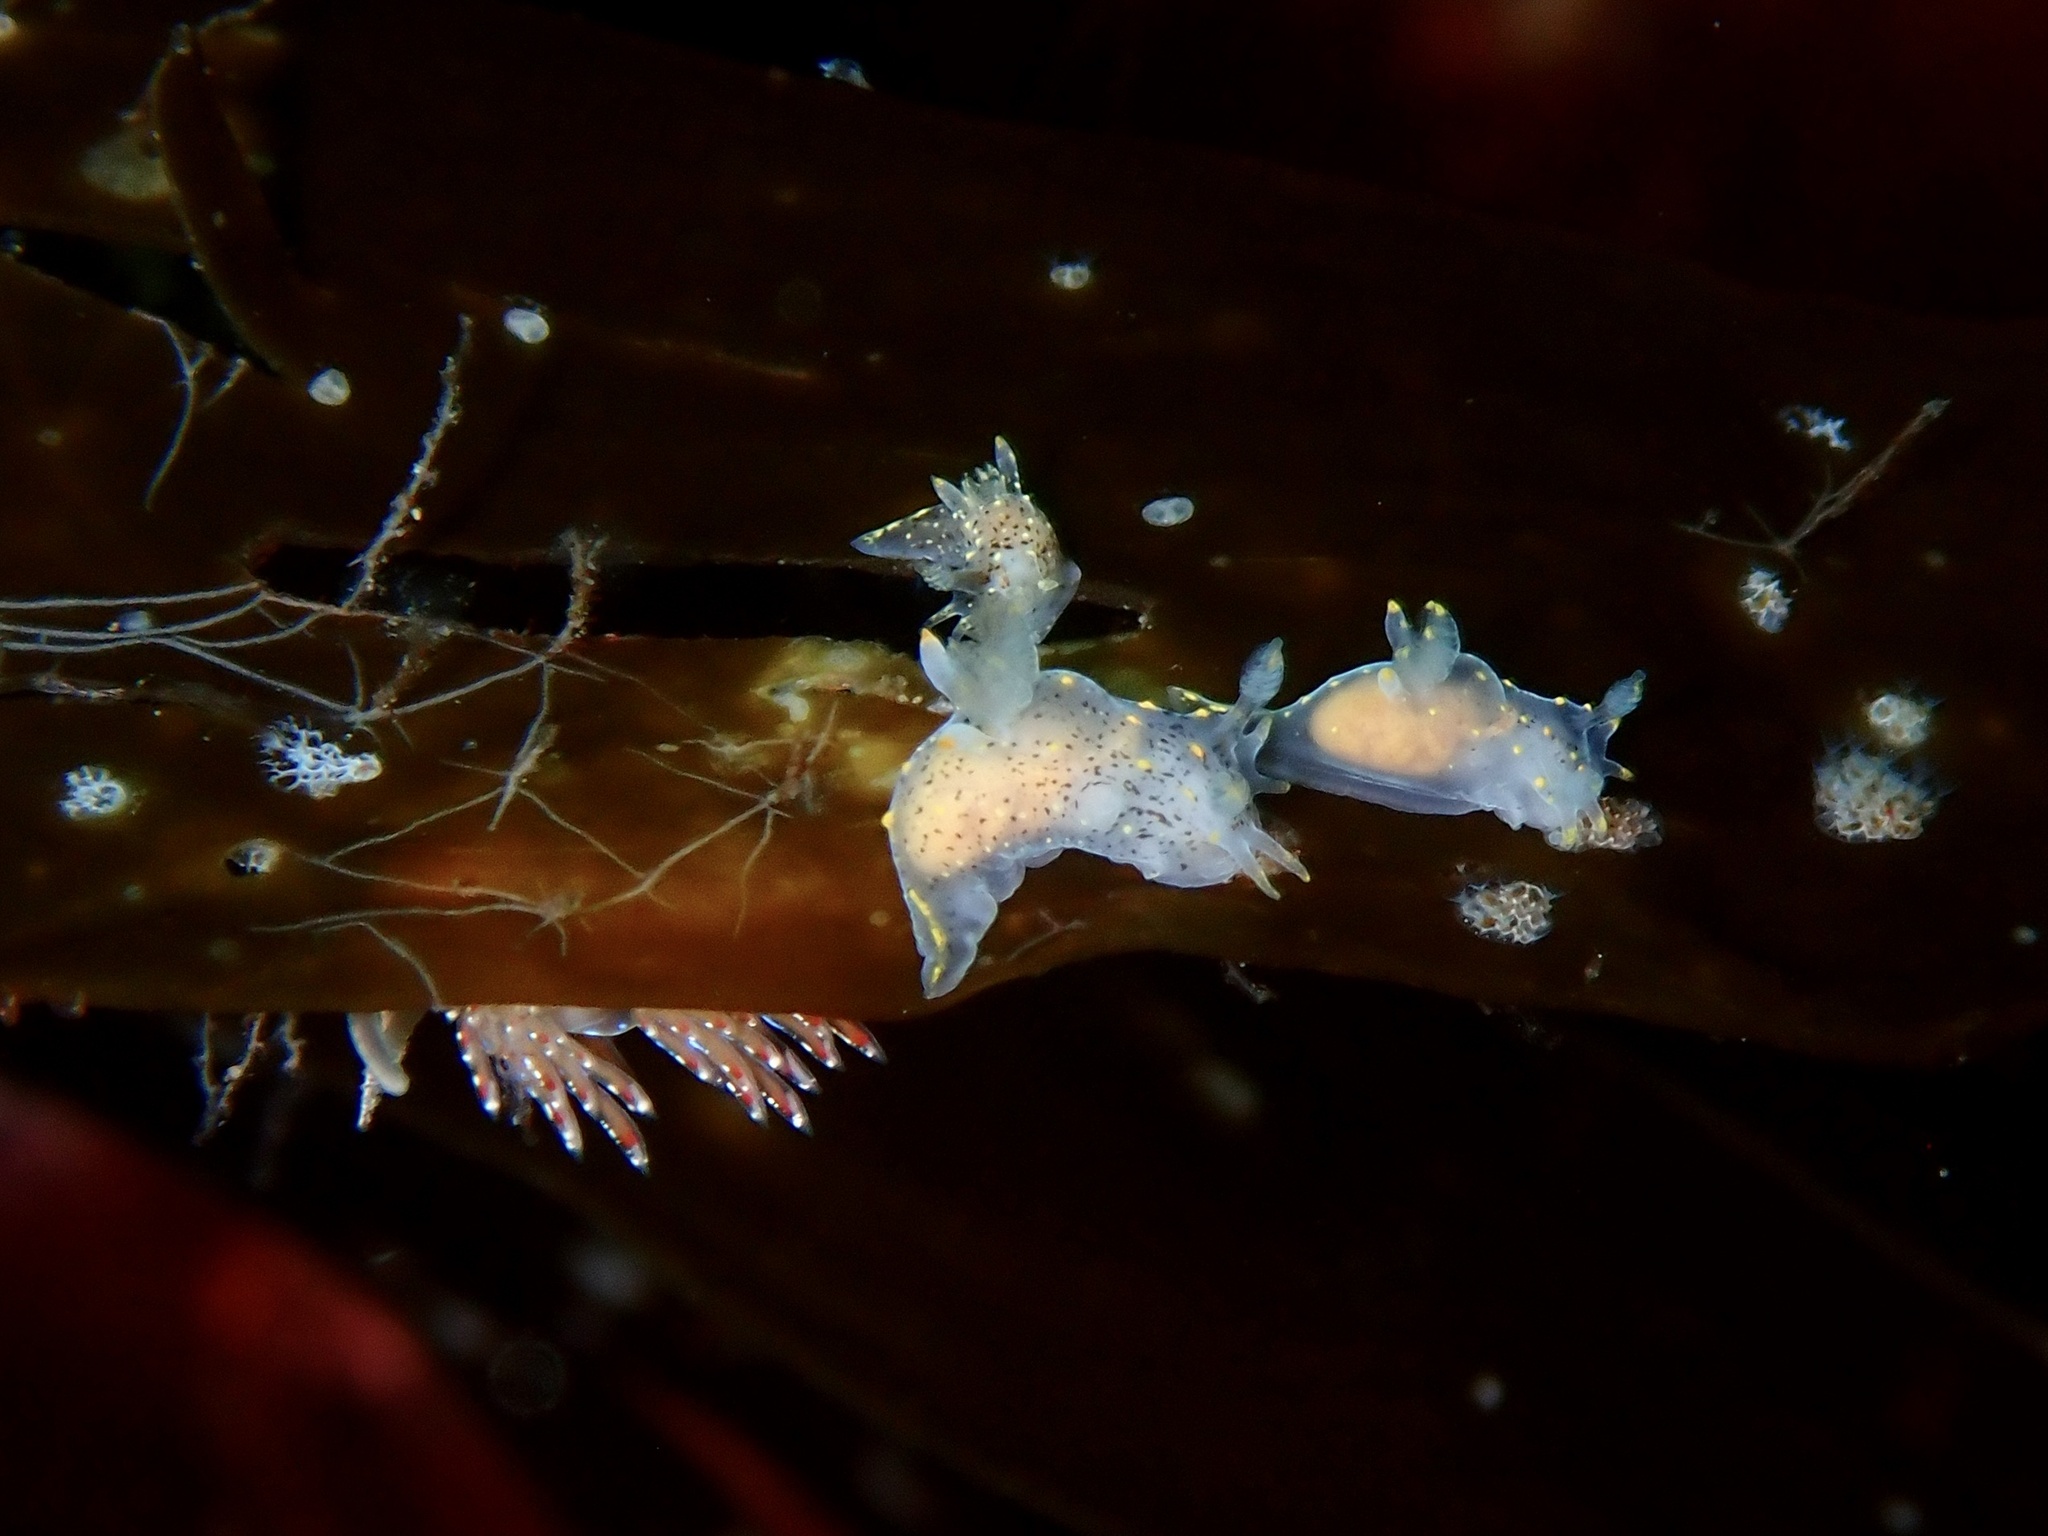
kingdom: Animalia
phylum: Mollusca
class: Gastropoda
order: Nudibranchia
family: Polyceridae
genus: Polycera
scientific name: Polycera norvegica
